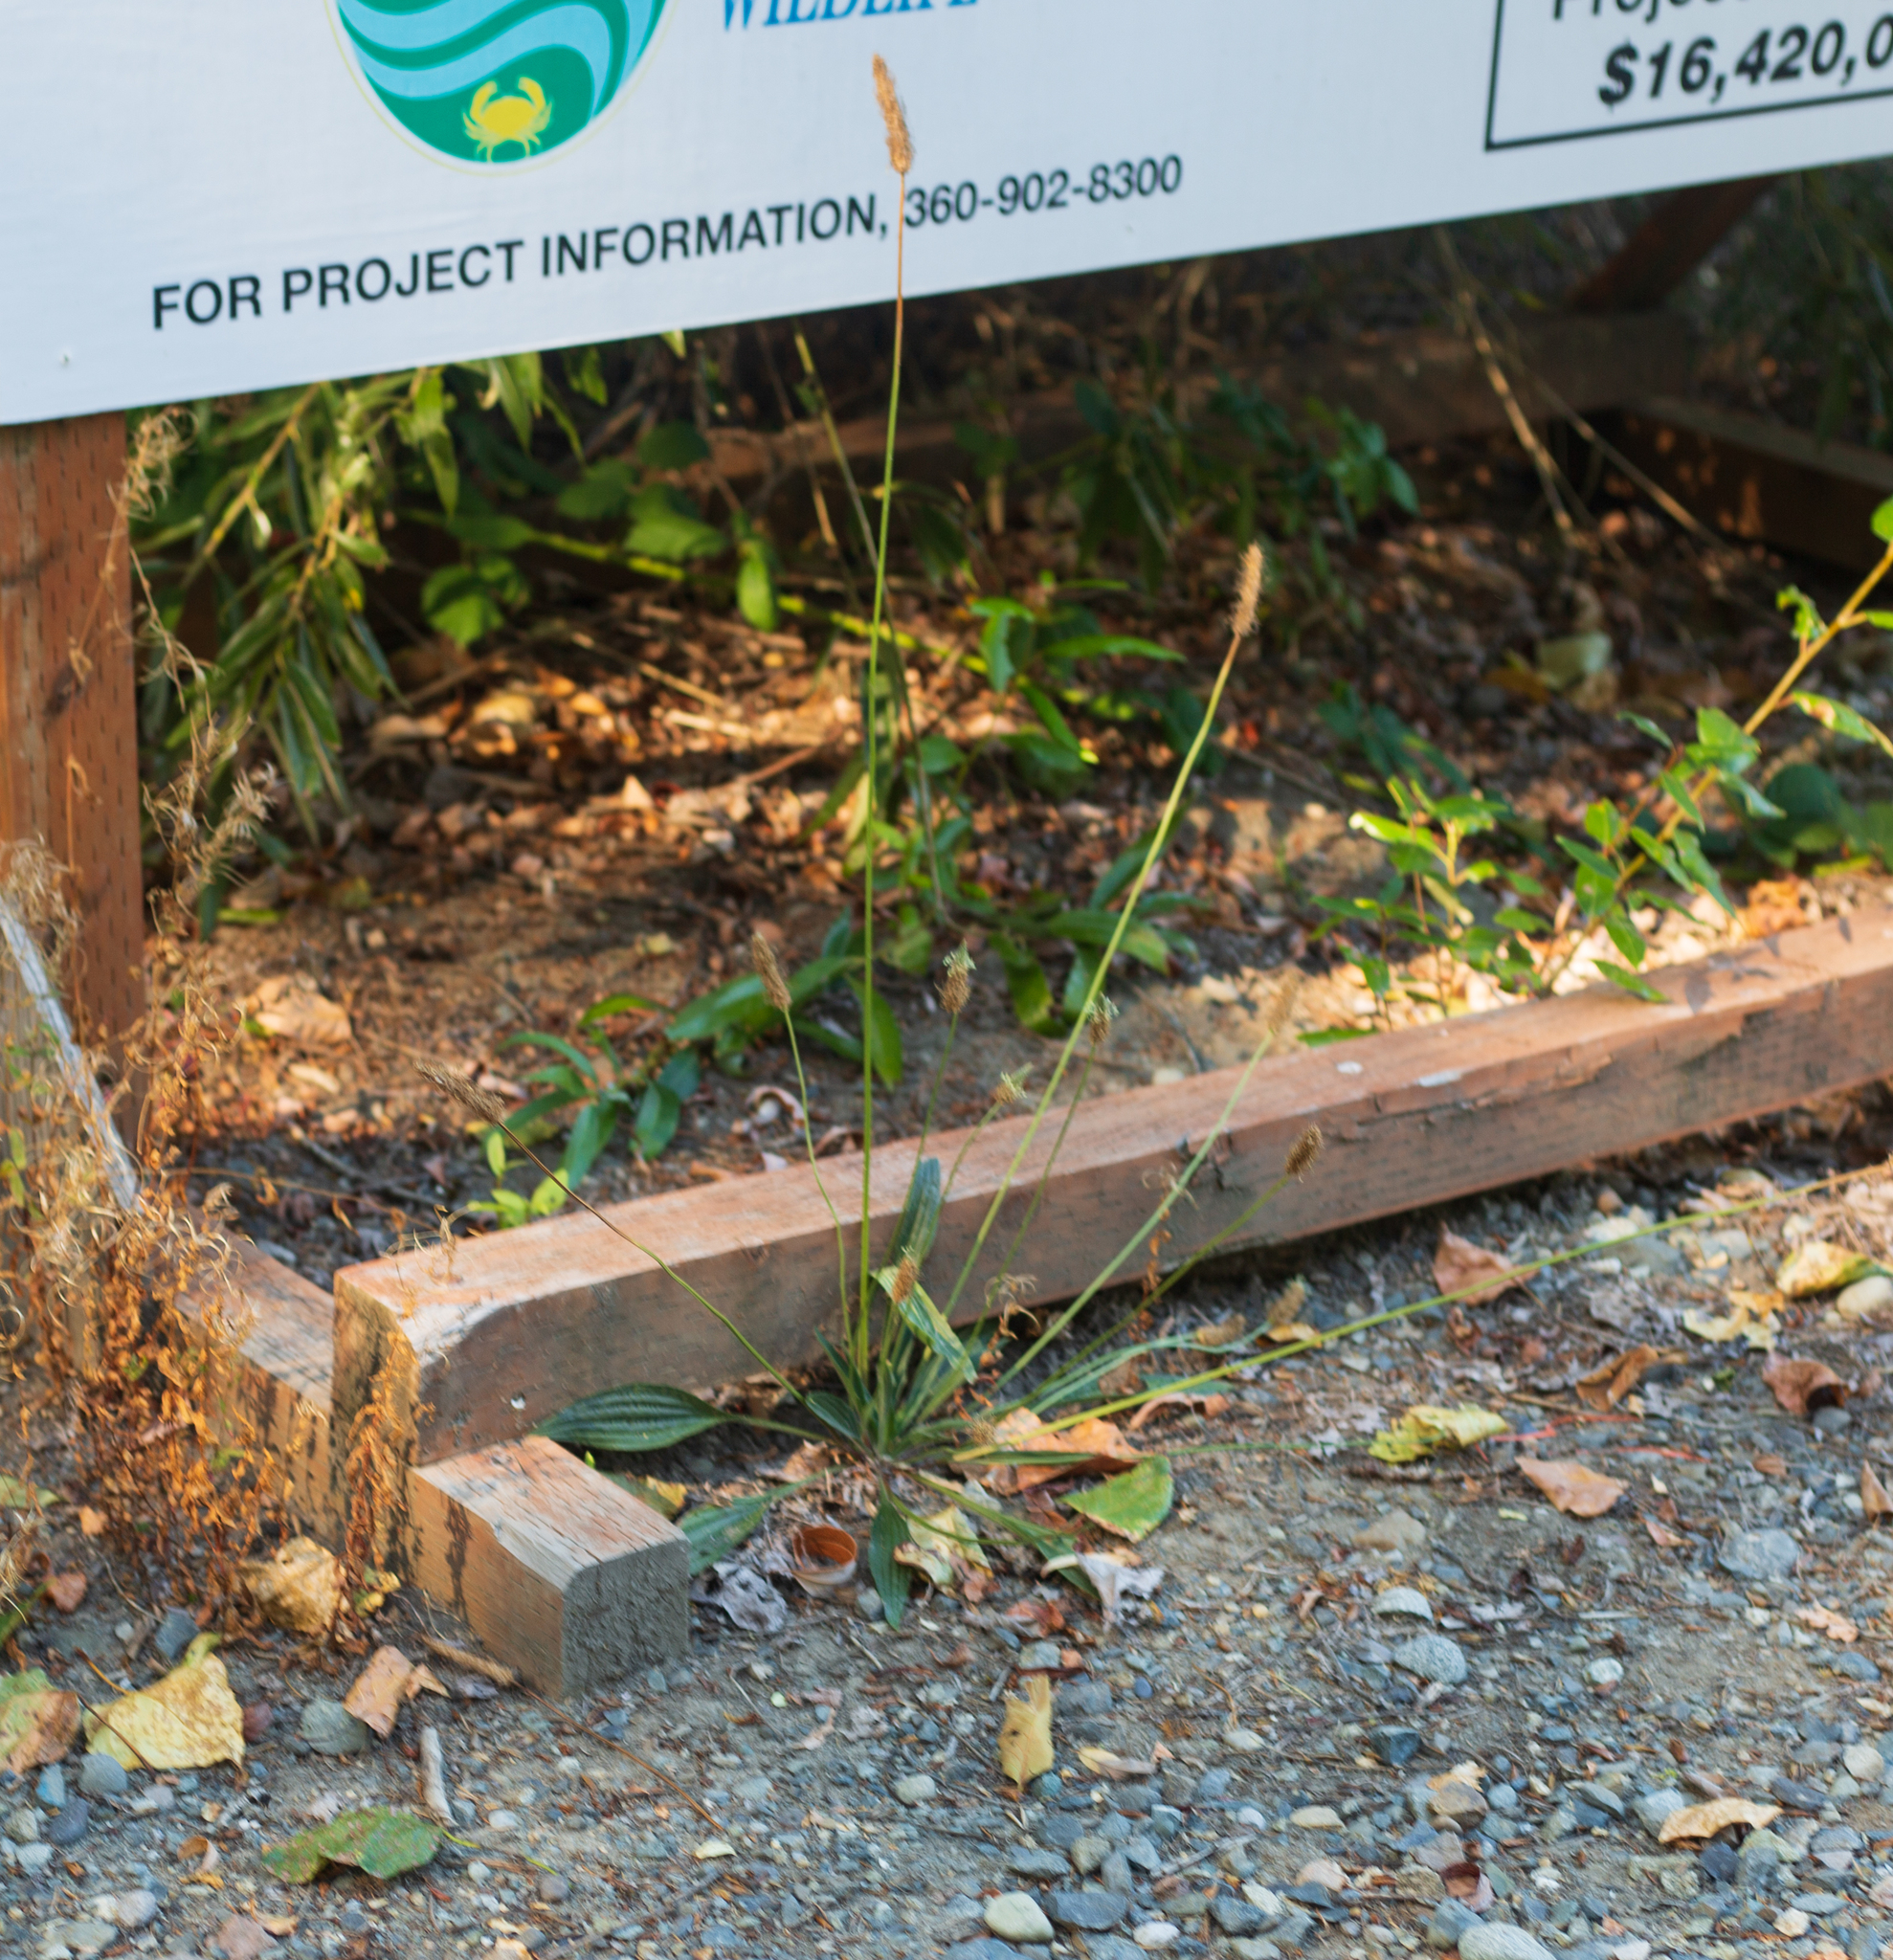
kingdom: Plantae
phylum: Tracheophyta
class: Magnoliopsida
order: Lamiales
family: Plantaginaceae
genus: Plantago
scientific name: Plantago lanceolata
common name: Ribwort plantain
